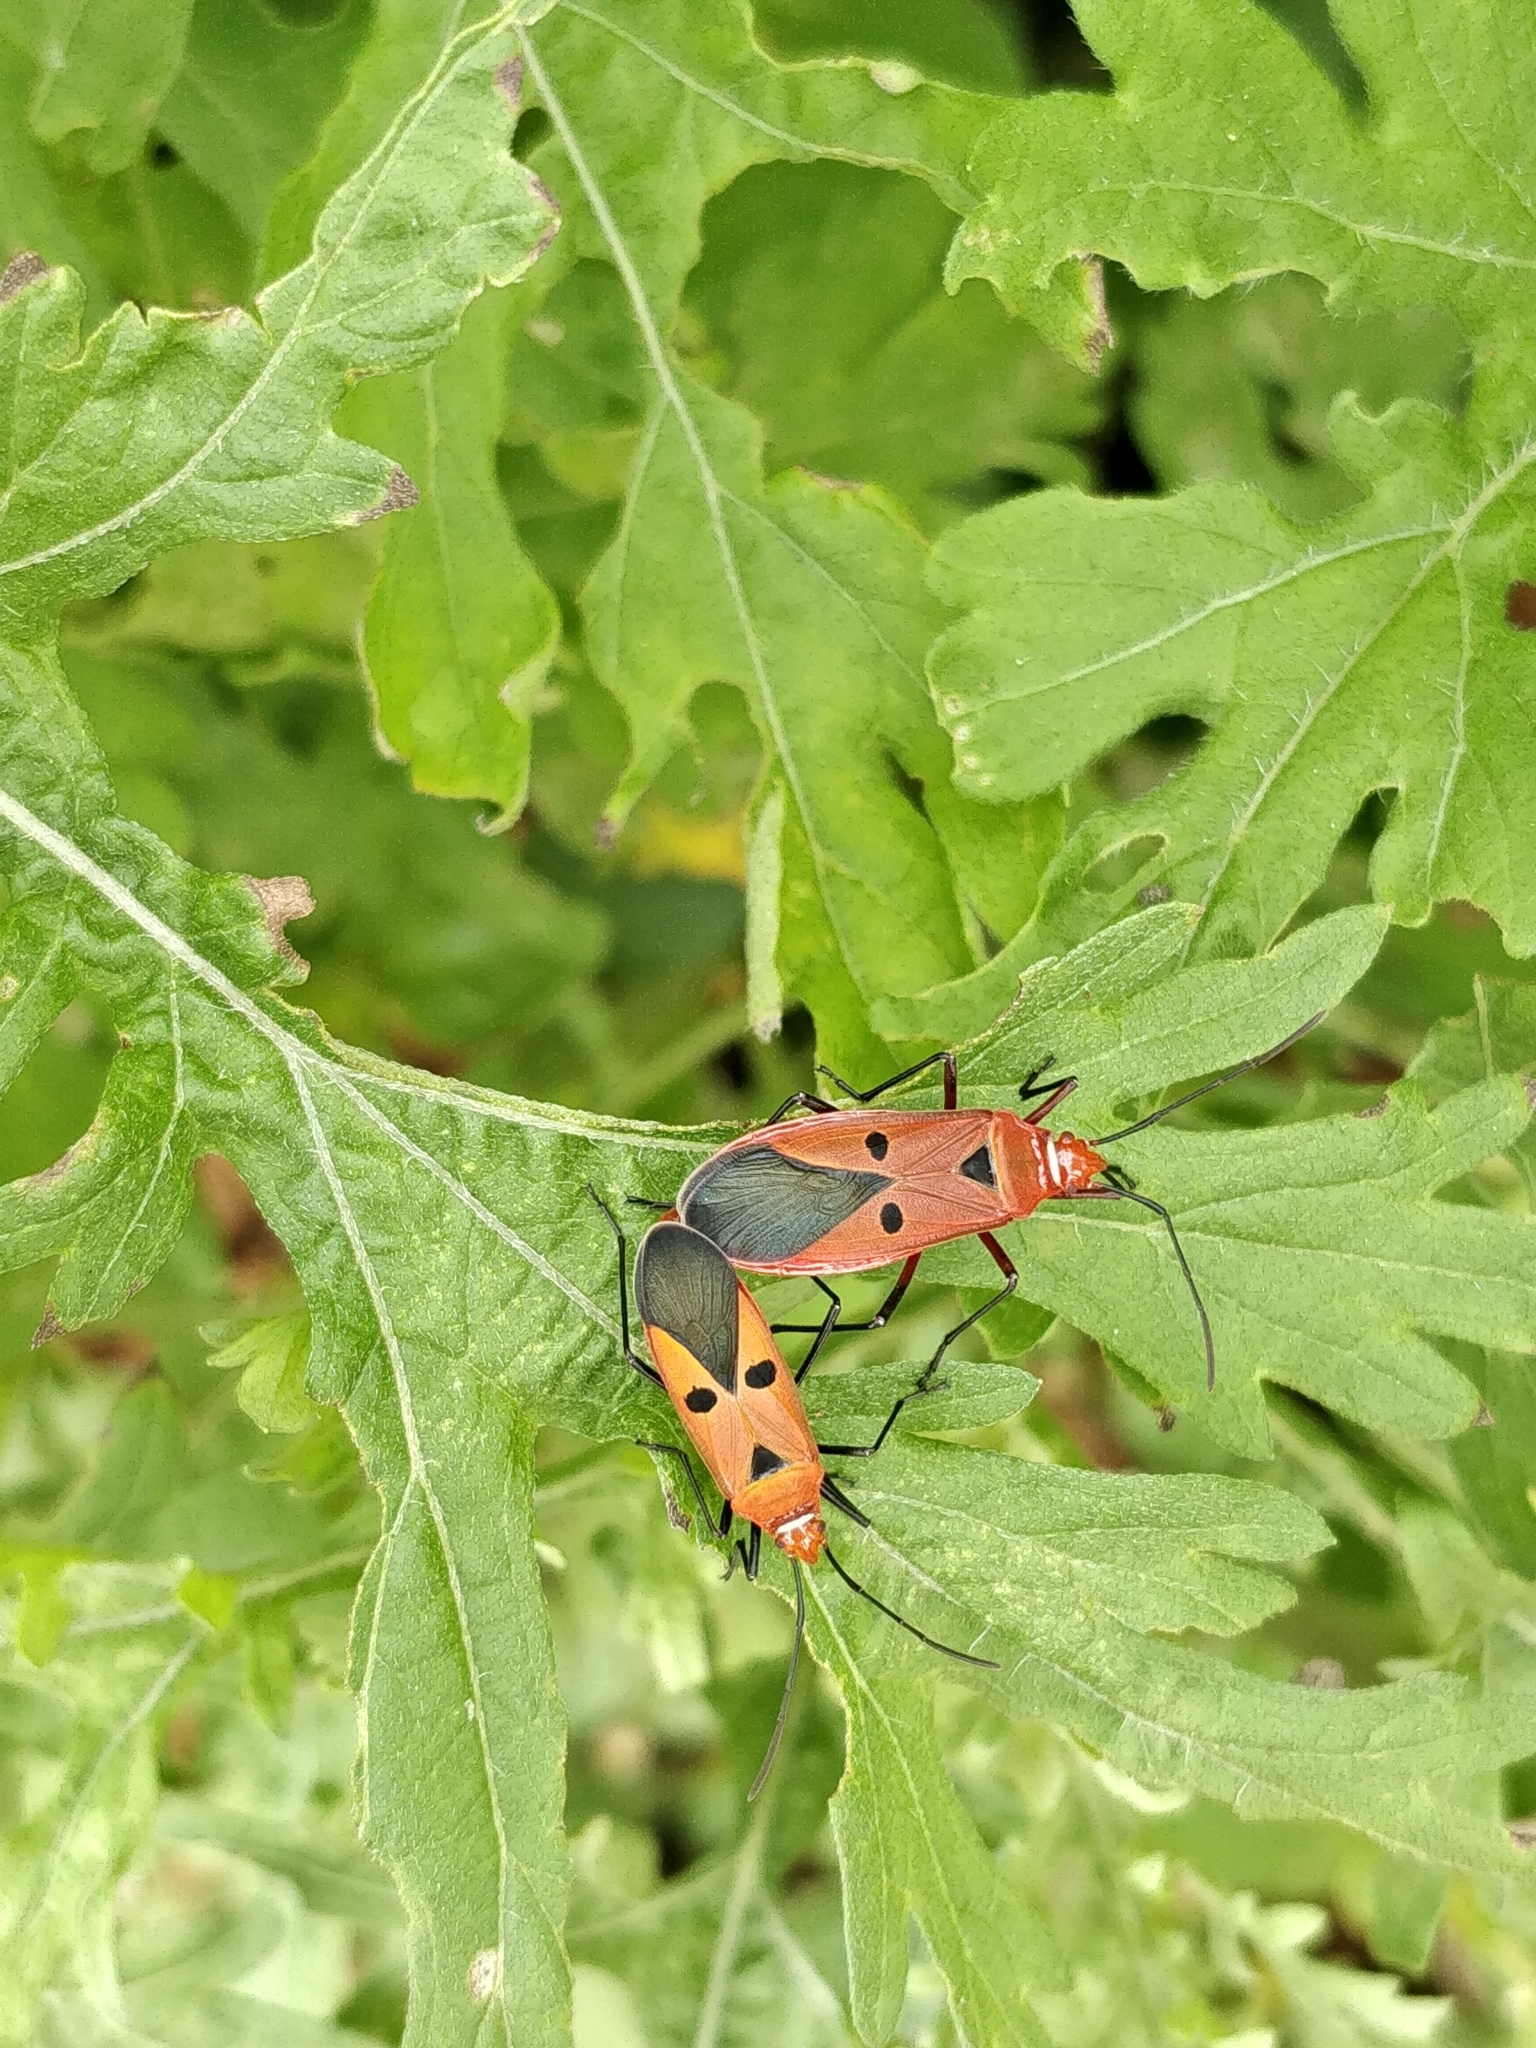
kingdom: Animalia
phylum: Arthropoda
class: Insecta
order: Hemiptera
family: Pyrrhocoridae
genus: Dysdercus
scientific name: Dysdercus cingulatus
